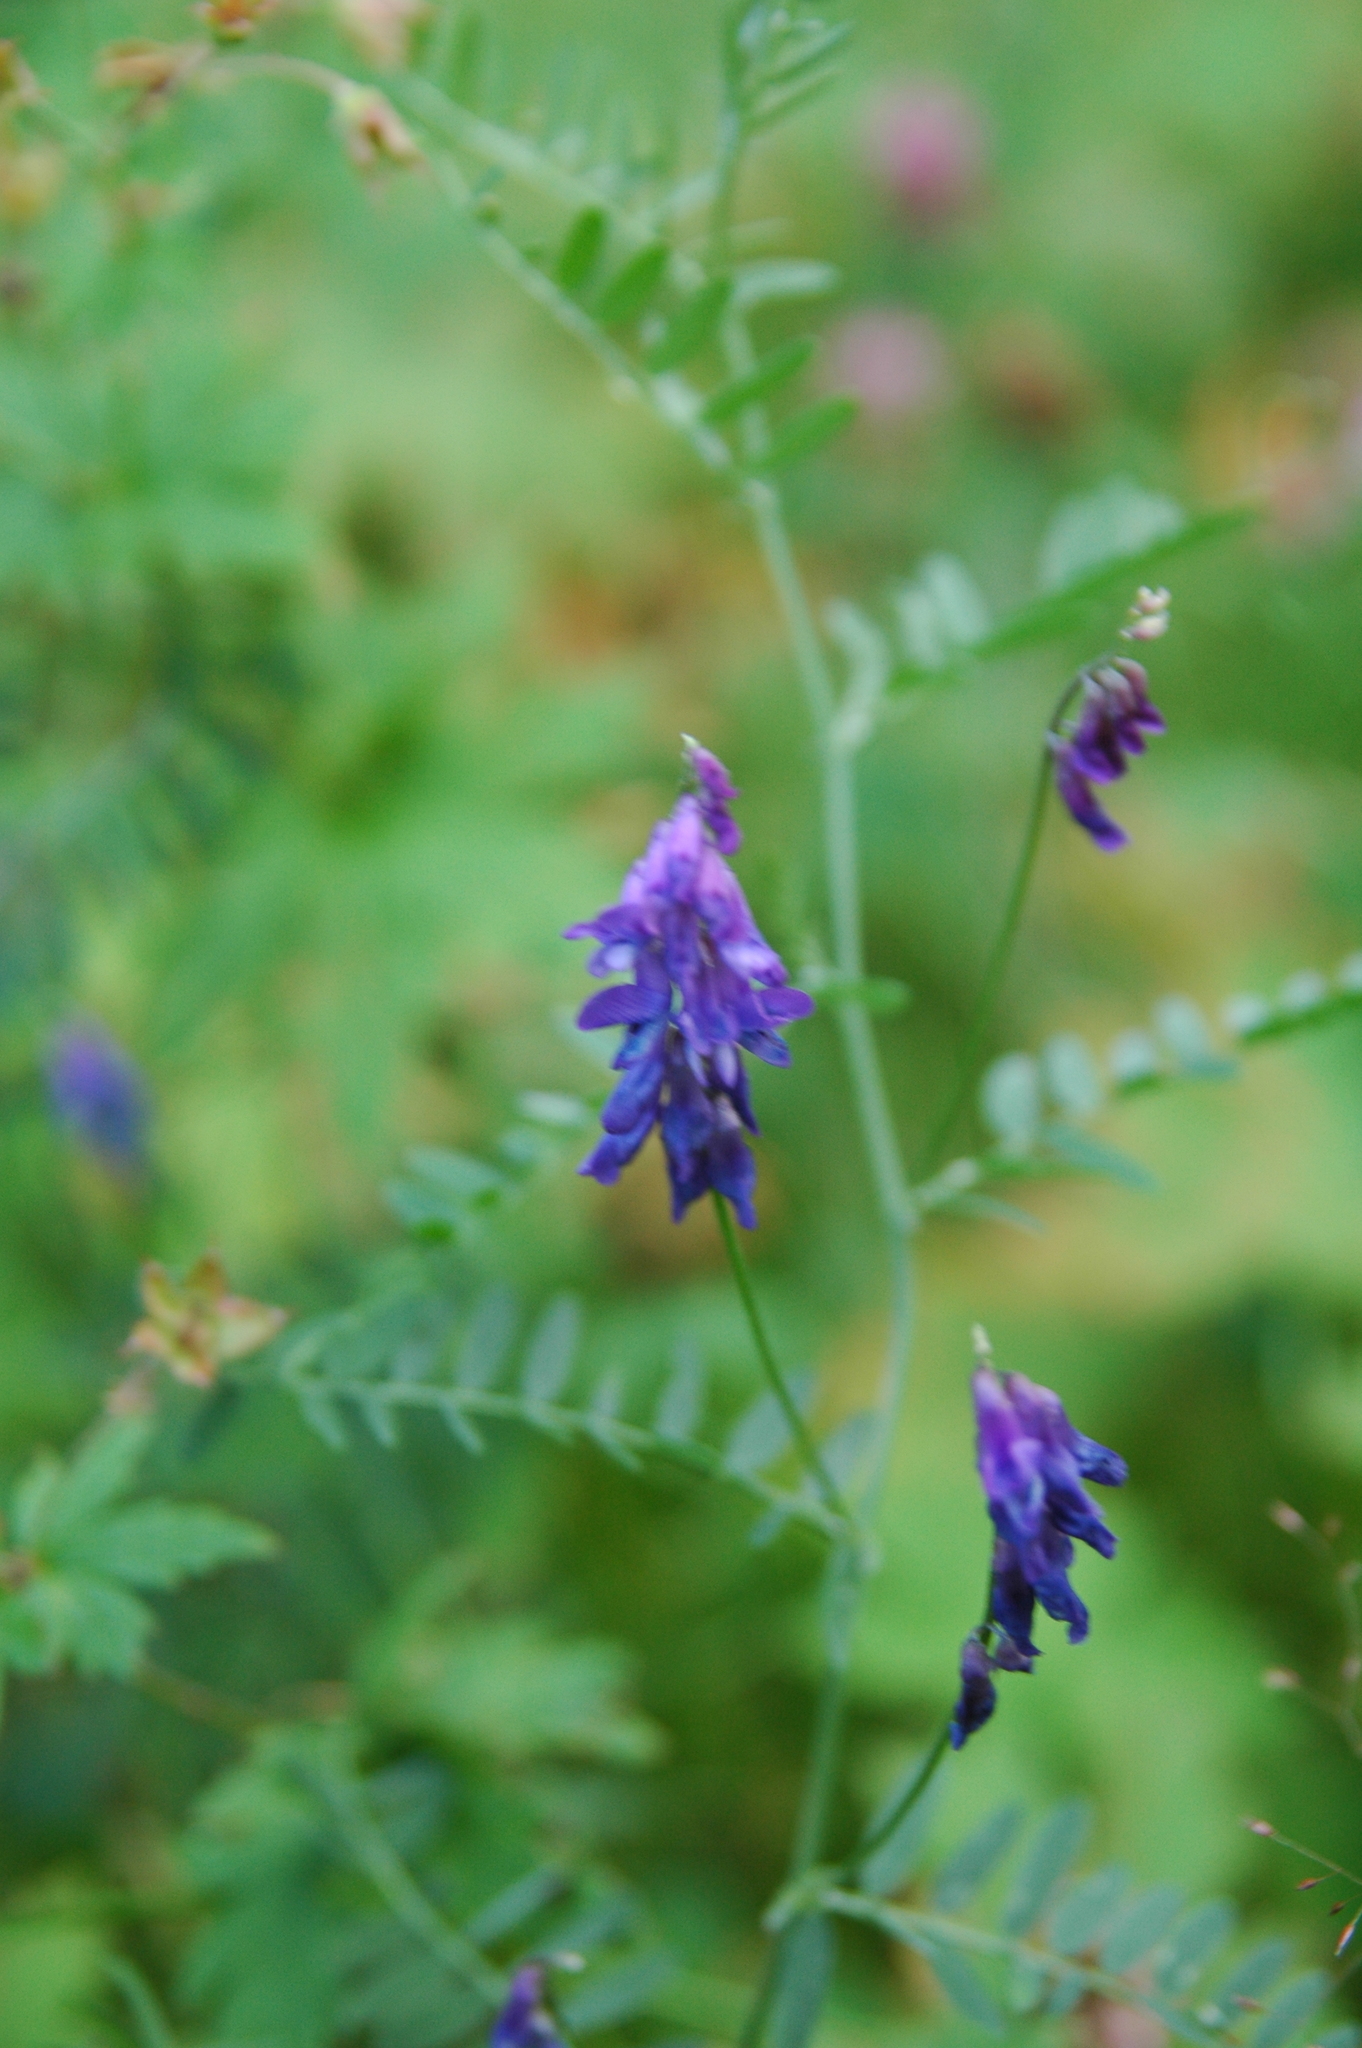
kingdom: Plantae
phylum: Tracheophyta
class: Magnoliopsida
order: Fabales
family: Fabaceae
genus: Vicia
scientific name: Vicia cracca
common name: Bird vetch
